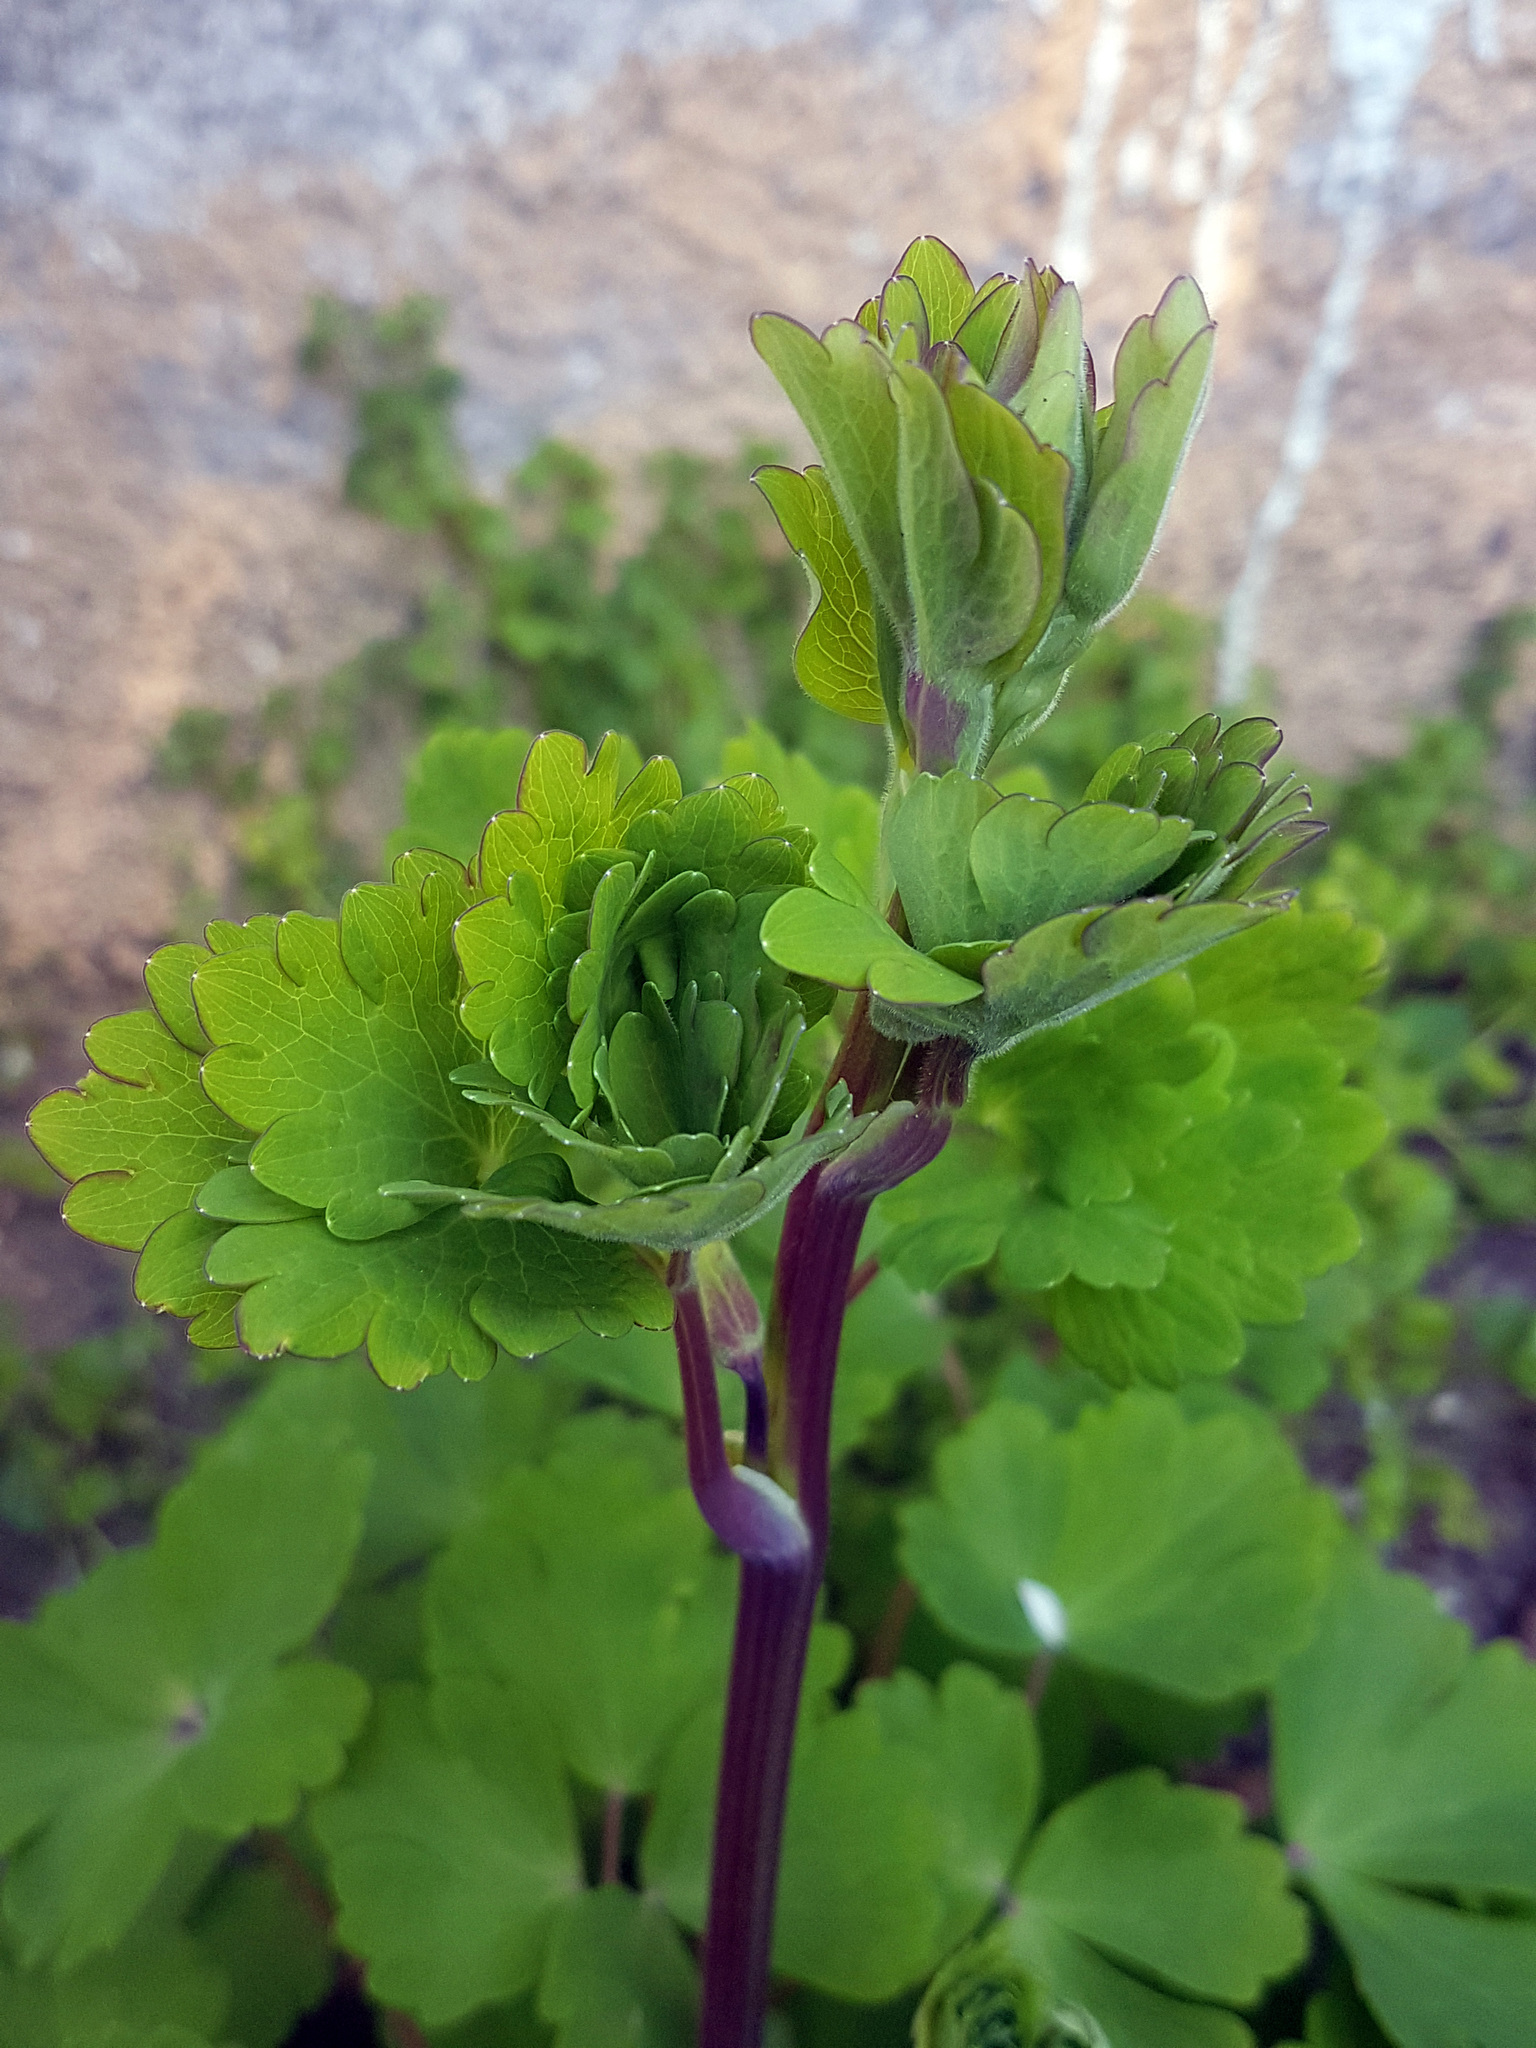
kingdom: Plantae
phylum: Tracheophyta
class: Magnoliopsida
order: Ranunculales
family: Ranunculaceae
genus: Aquilegia
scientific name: Aquilegia vulgaris
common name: Columbine
